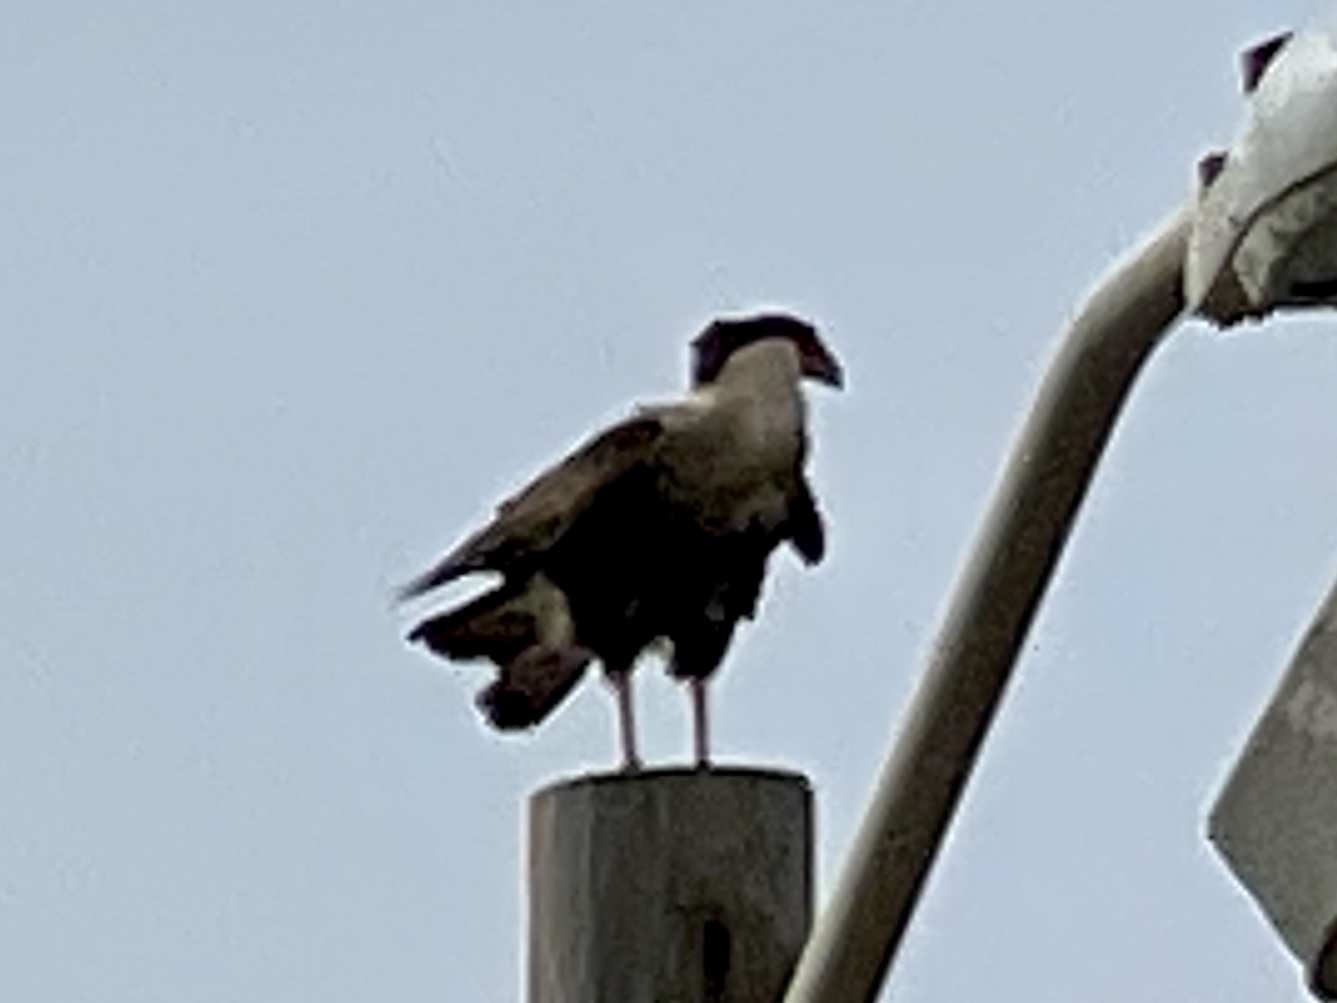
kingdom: Animalia
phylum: Chordata
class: Aves
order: Falconiformes
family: Falconidae
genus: Caracara
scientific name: Caracara plancus
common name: Southern caracara
